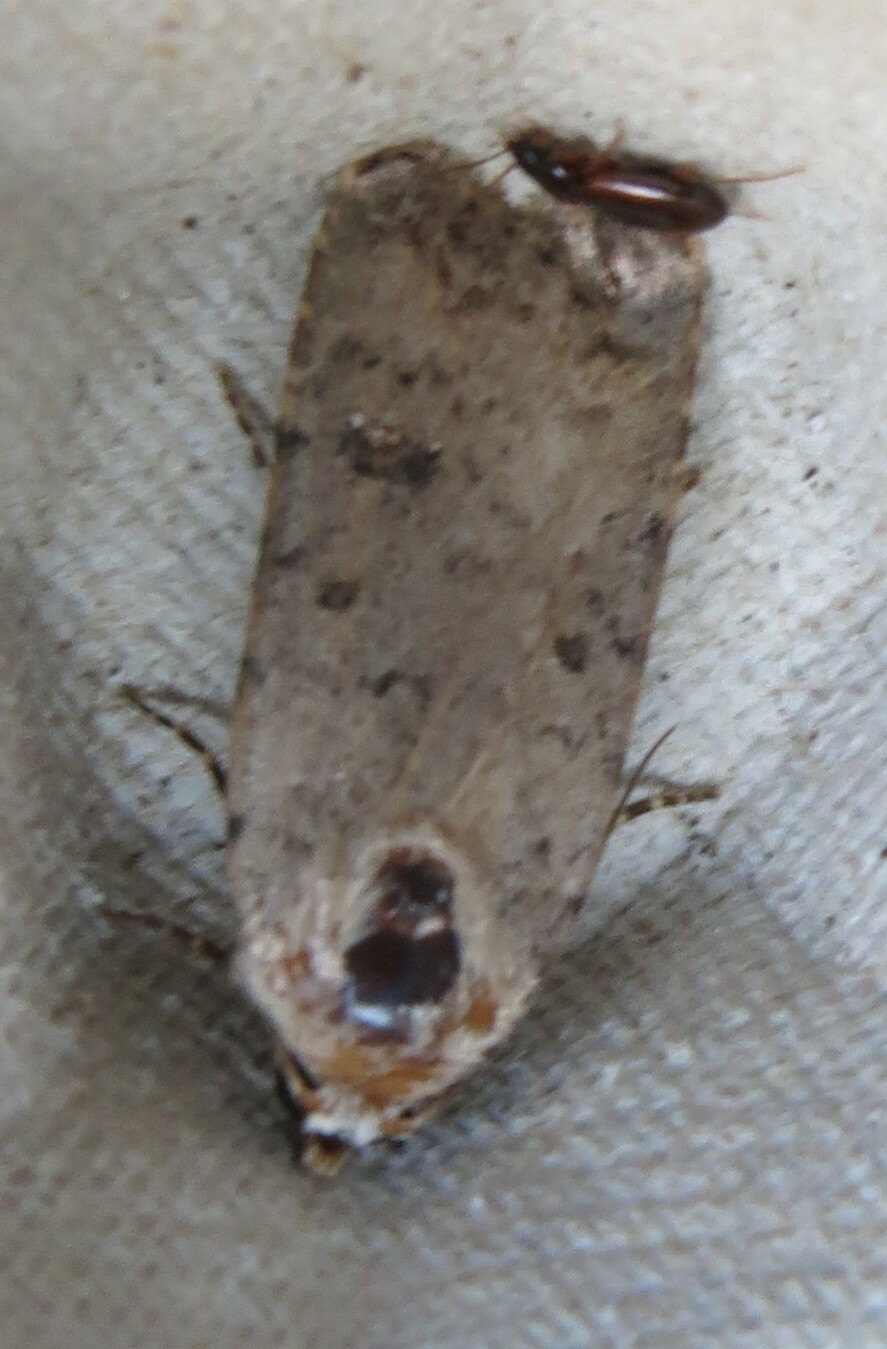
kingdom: Animalia
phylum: Arthropoda
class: Insecta
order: Lepidoptera
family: Noctuidae
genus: Caradrina
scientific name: Caradrina clavipalpis
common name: Pale mottled willow
